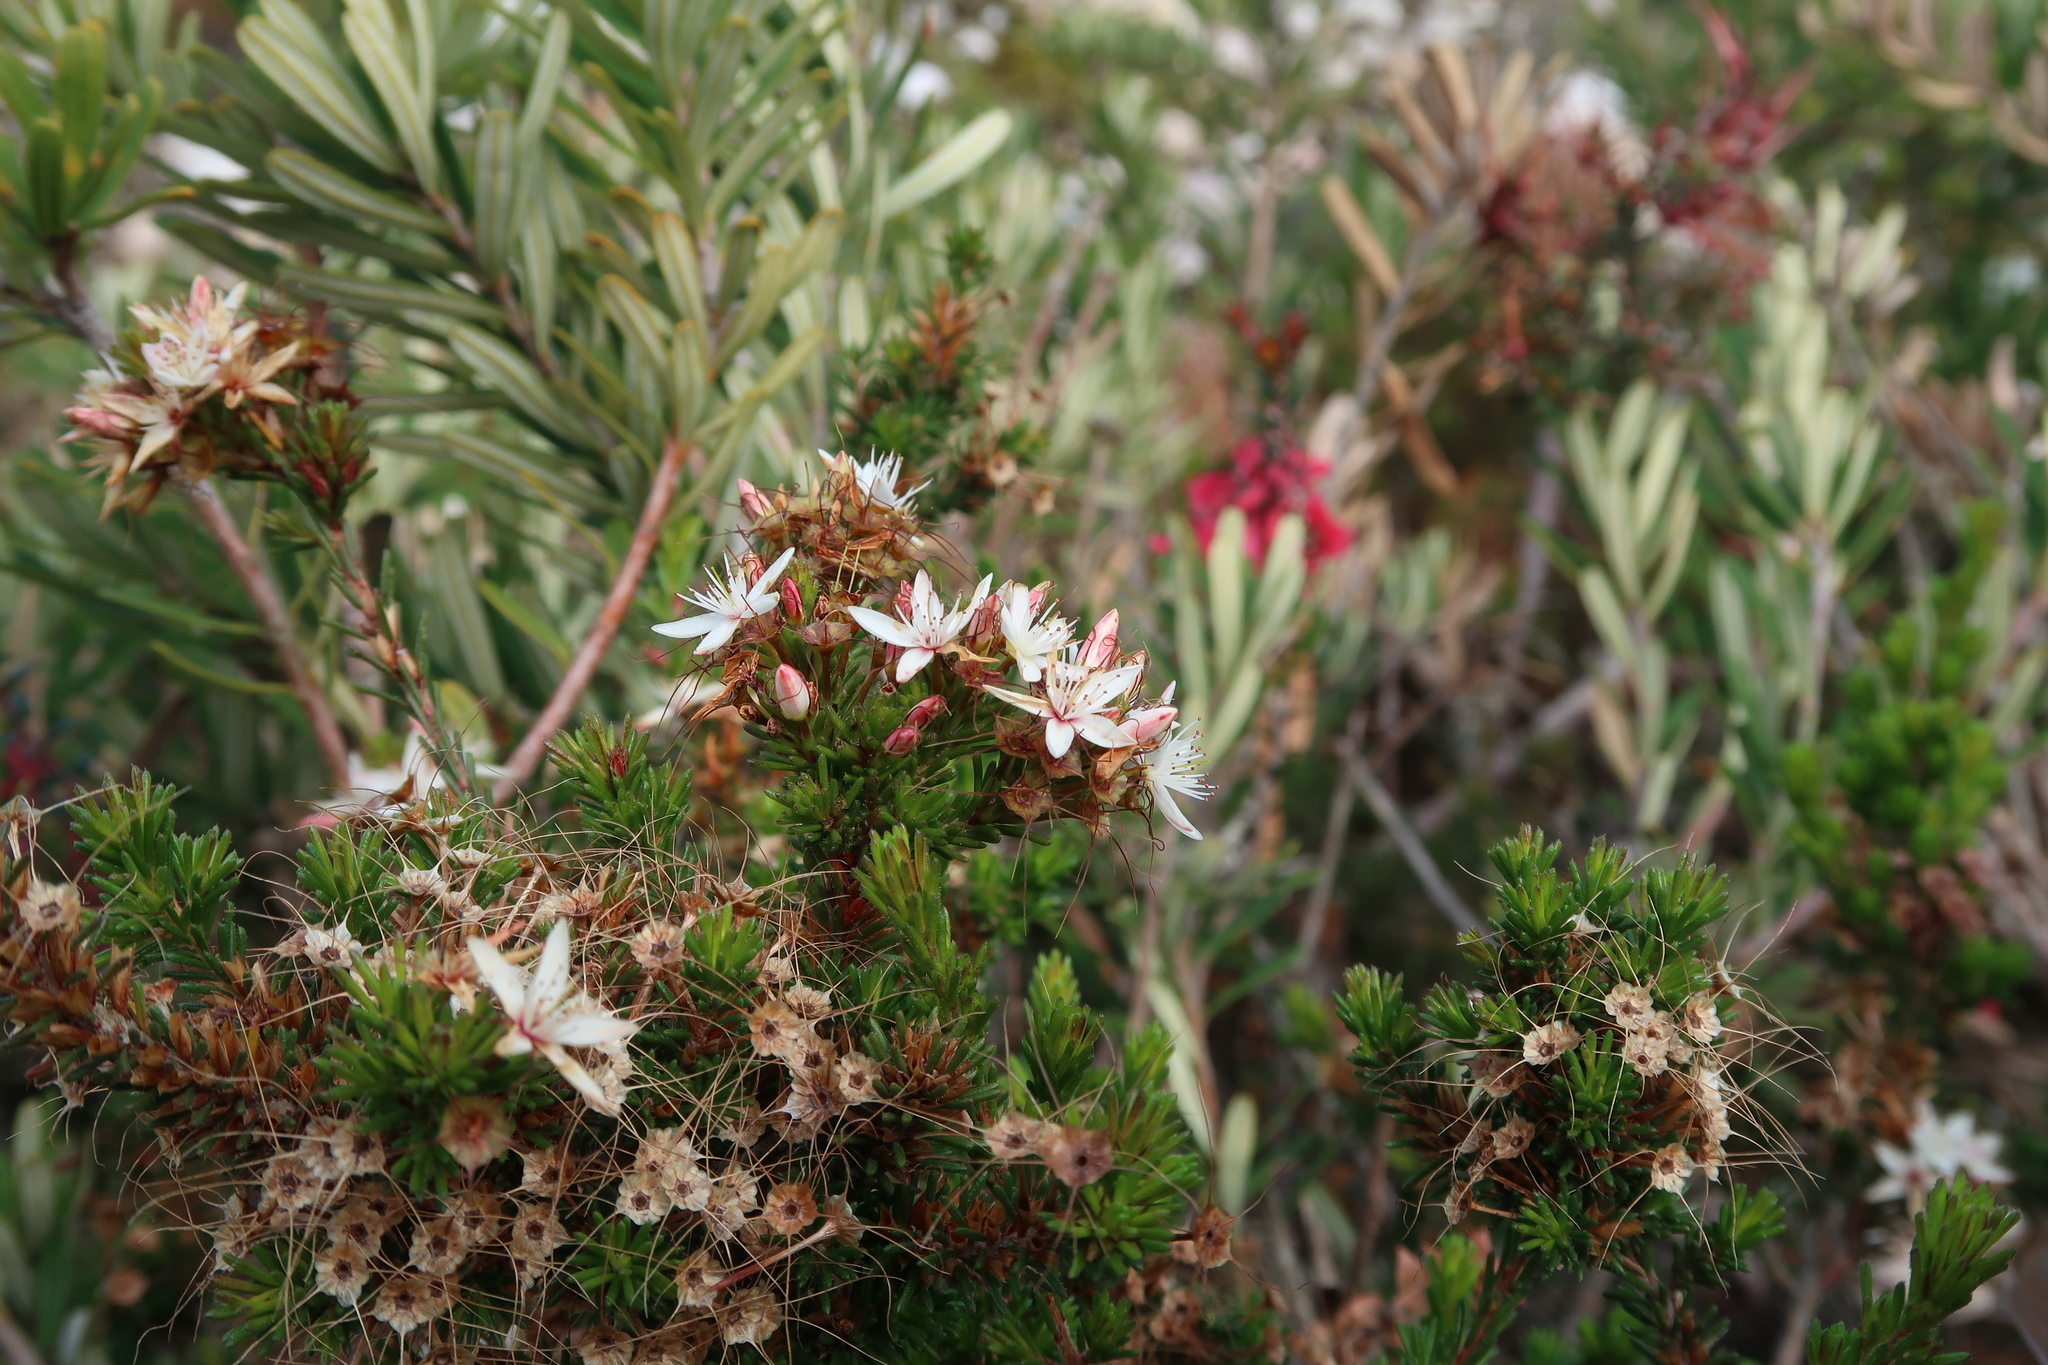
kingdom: Plantae
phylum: Tracheophyta
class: Magnoliopsida
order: Myrtales
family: Myrtaceae
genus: Calytrix
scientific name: Calytrix tetragona
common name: Common fringe myrtle
